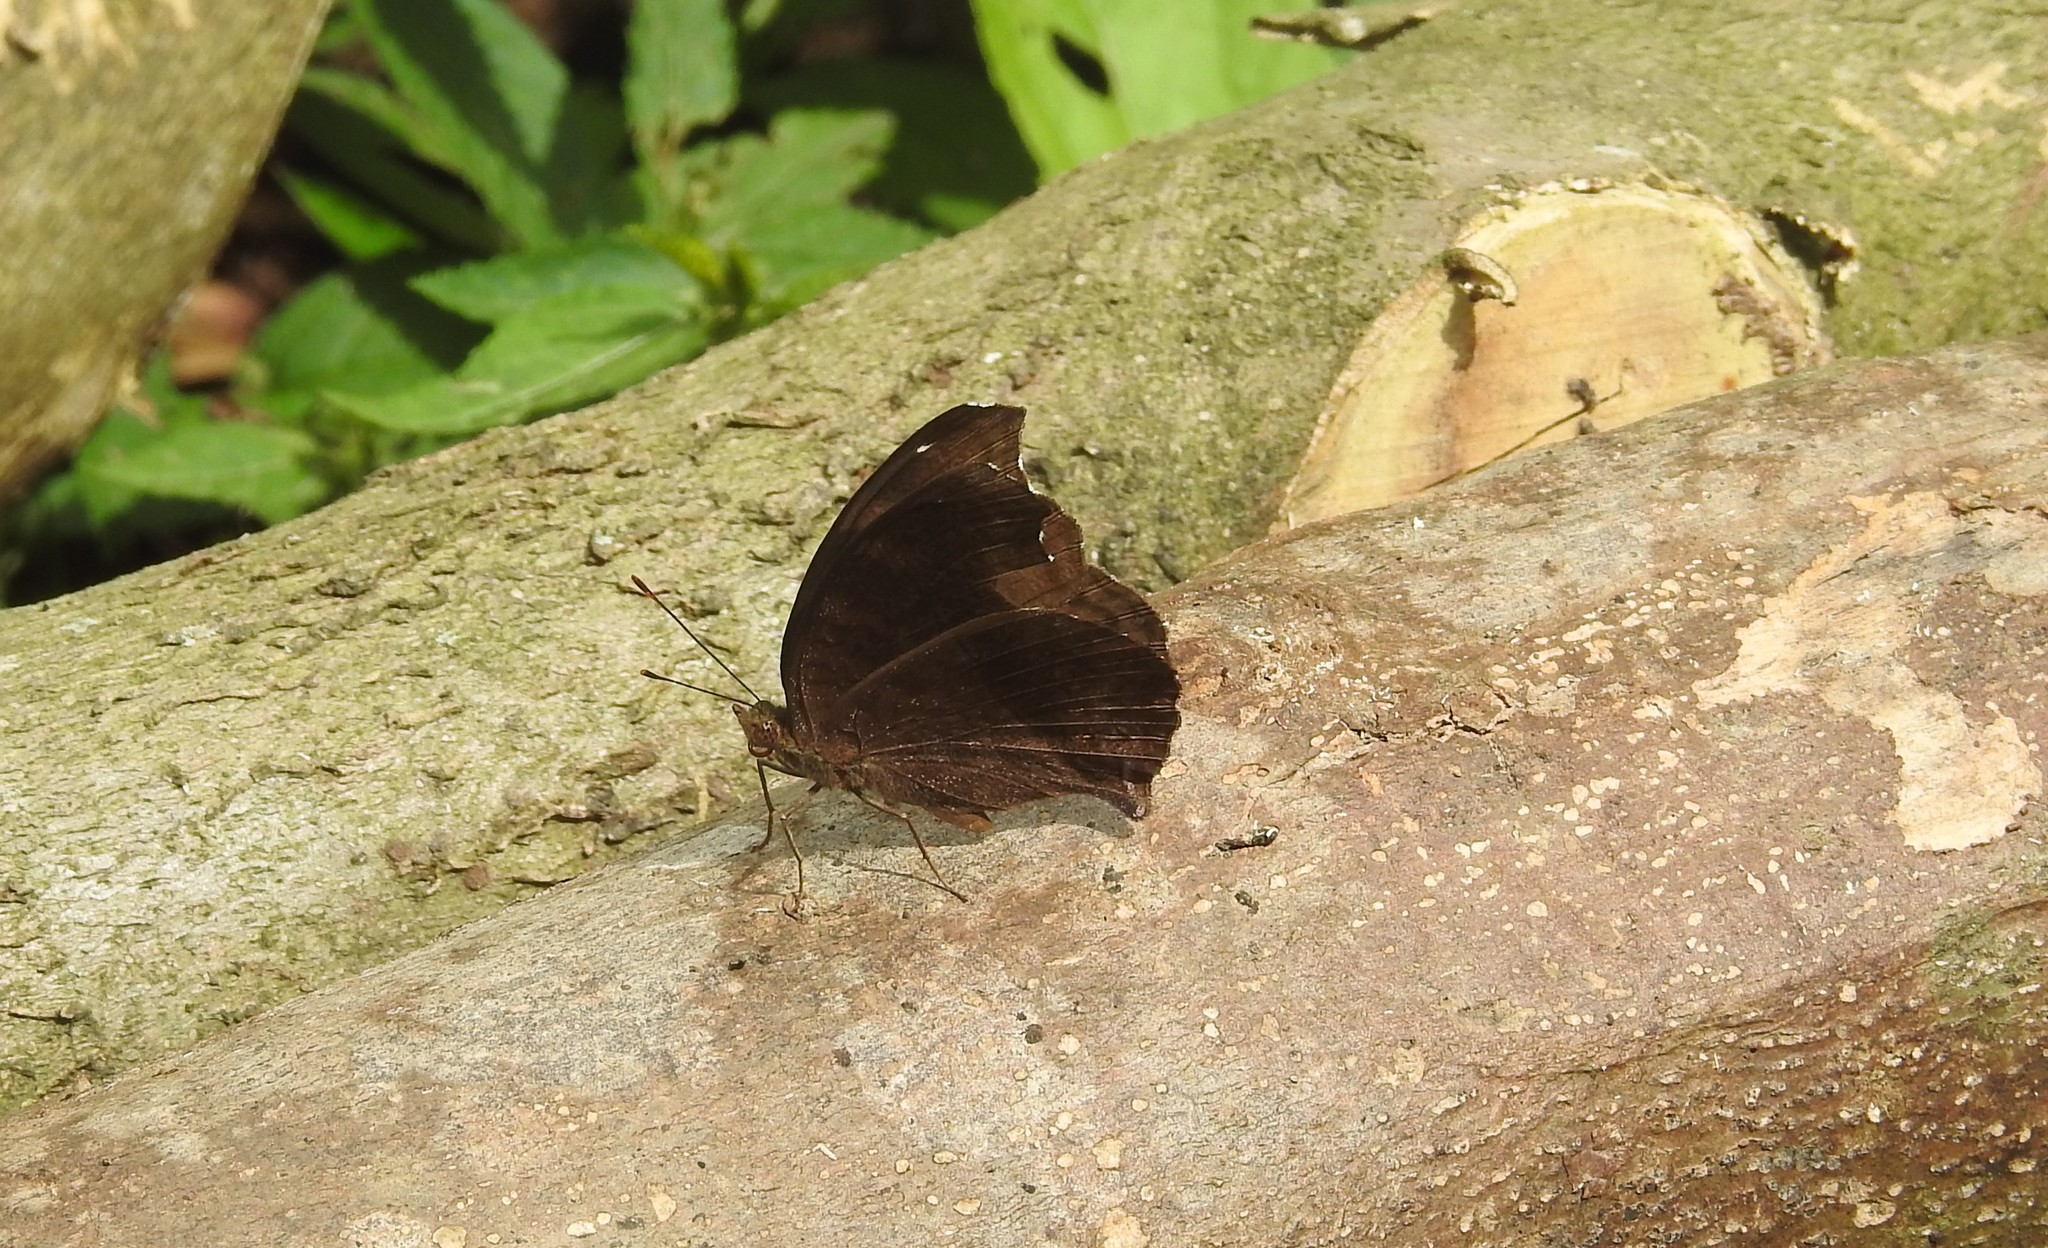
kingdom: Animalia
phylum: Arthropoda
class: Insecta
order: Lepidoptera
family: Nymphalidae
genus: Junonia
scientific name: Junonia iphita
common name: Chocolate pansy
